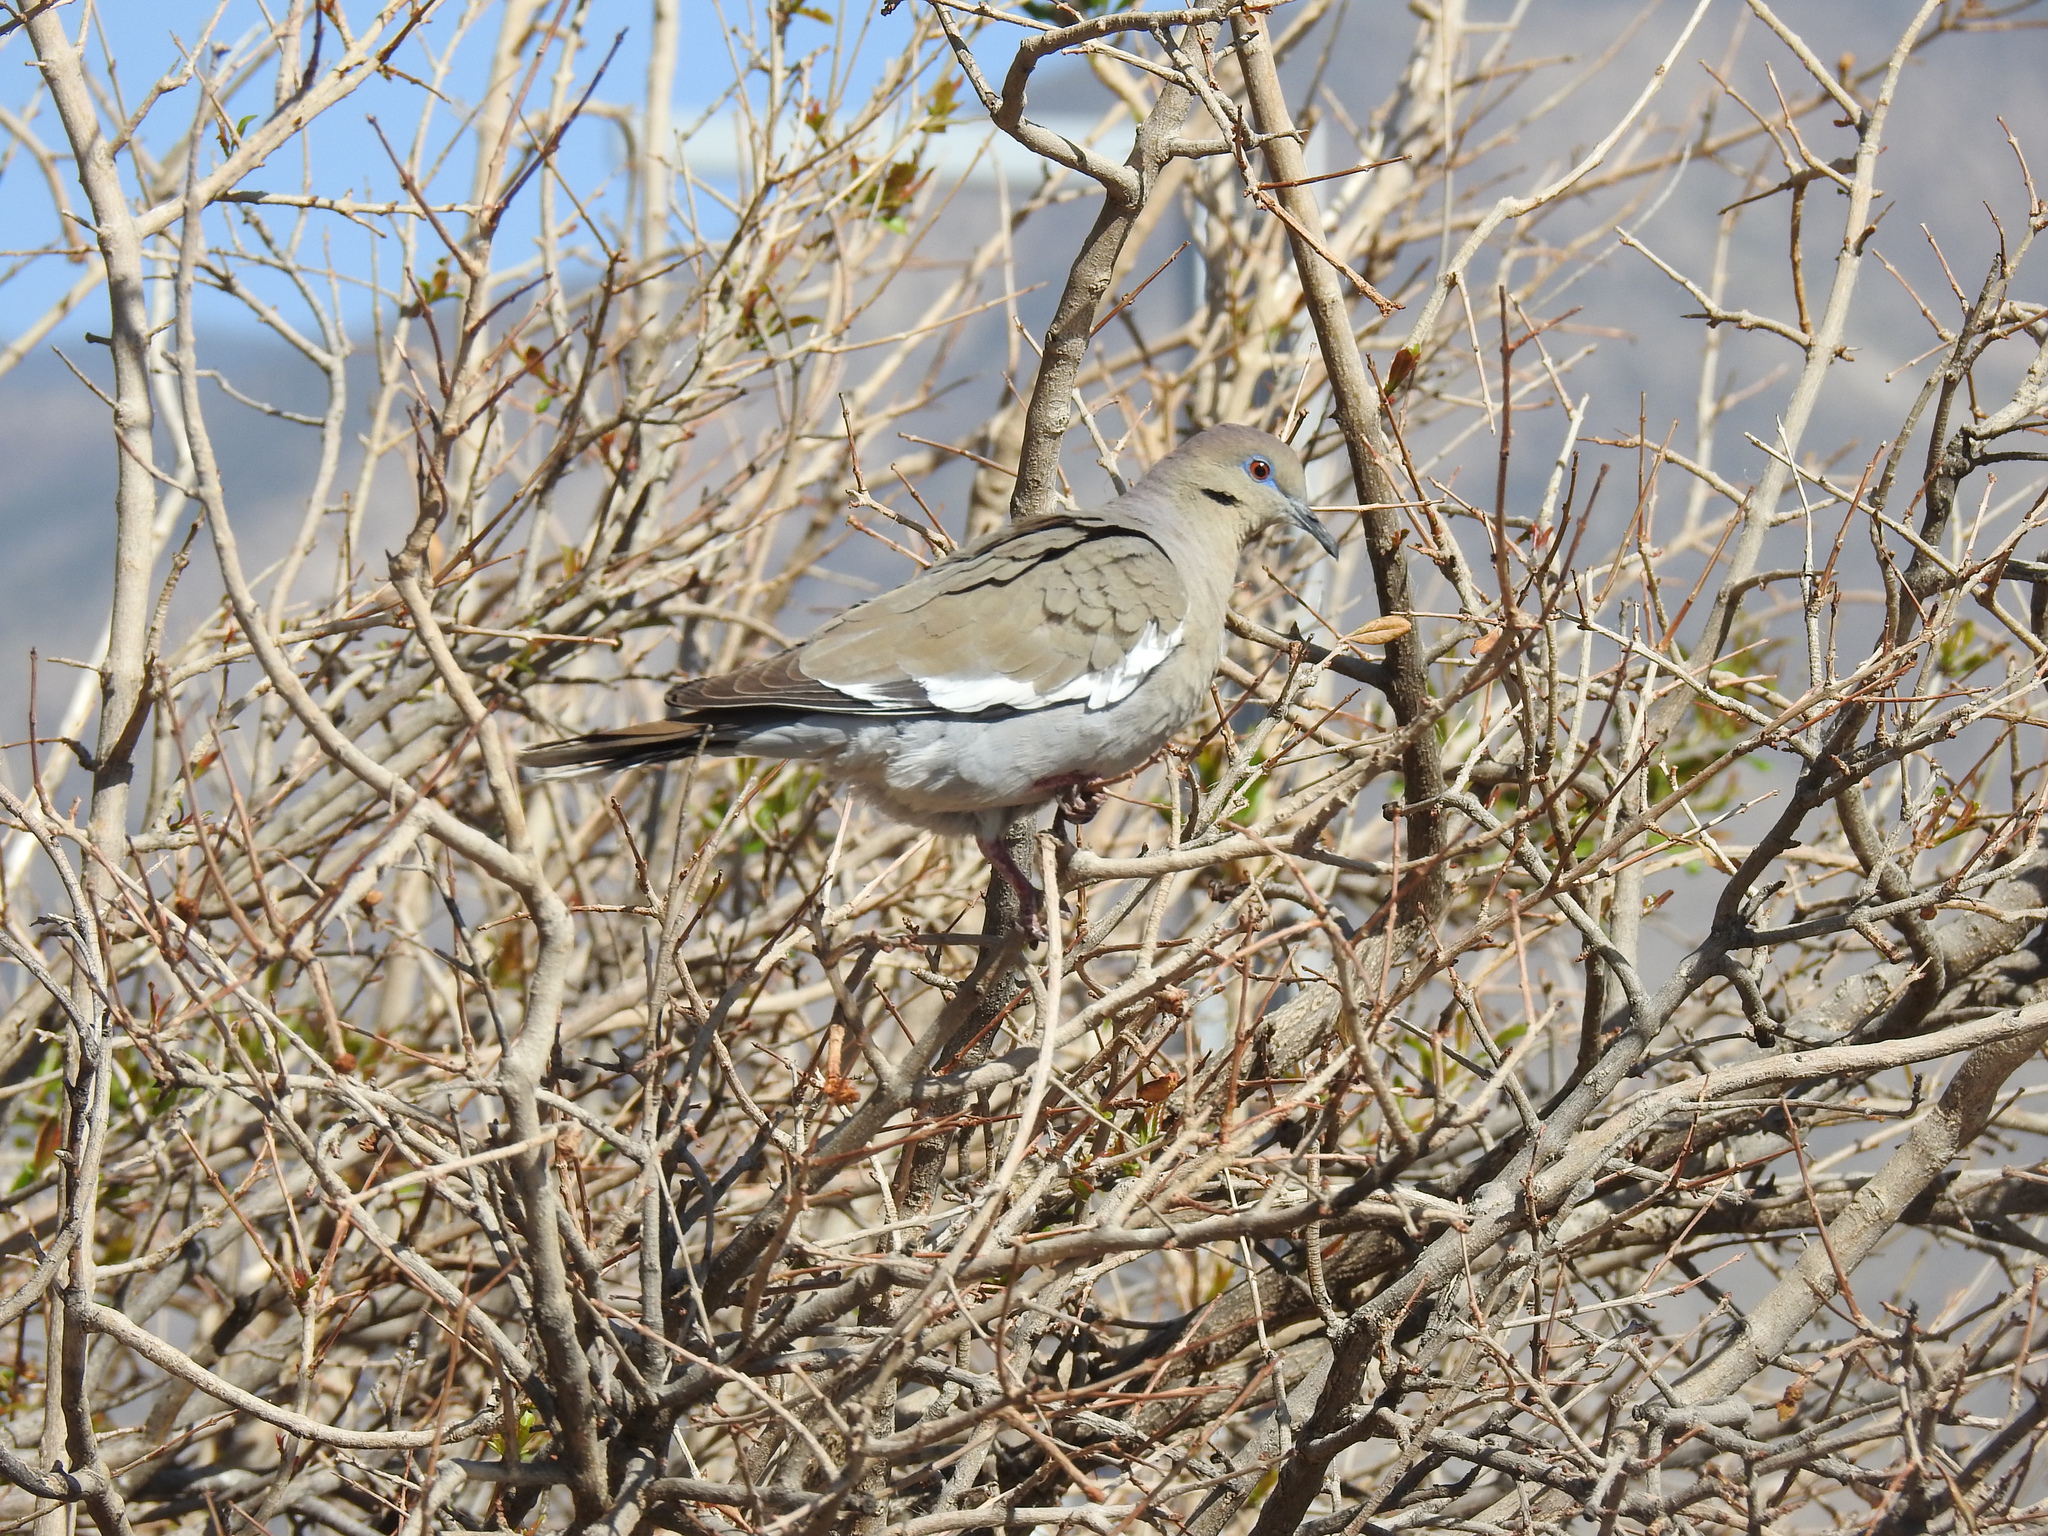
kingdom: Animalia
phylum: Chordata
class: Aves
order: Columbiformes
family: Columbidae
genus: Zenaida
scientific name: Zenaida asiatica
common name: White-winged dove
